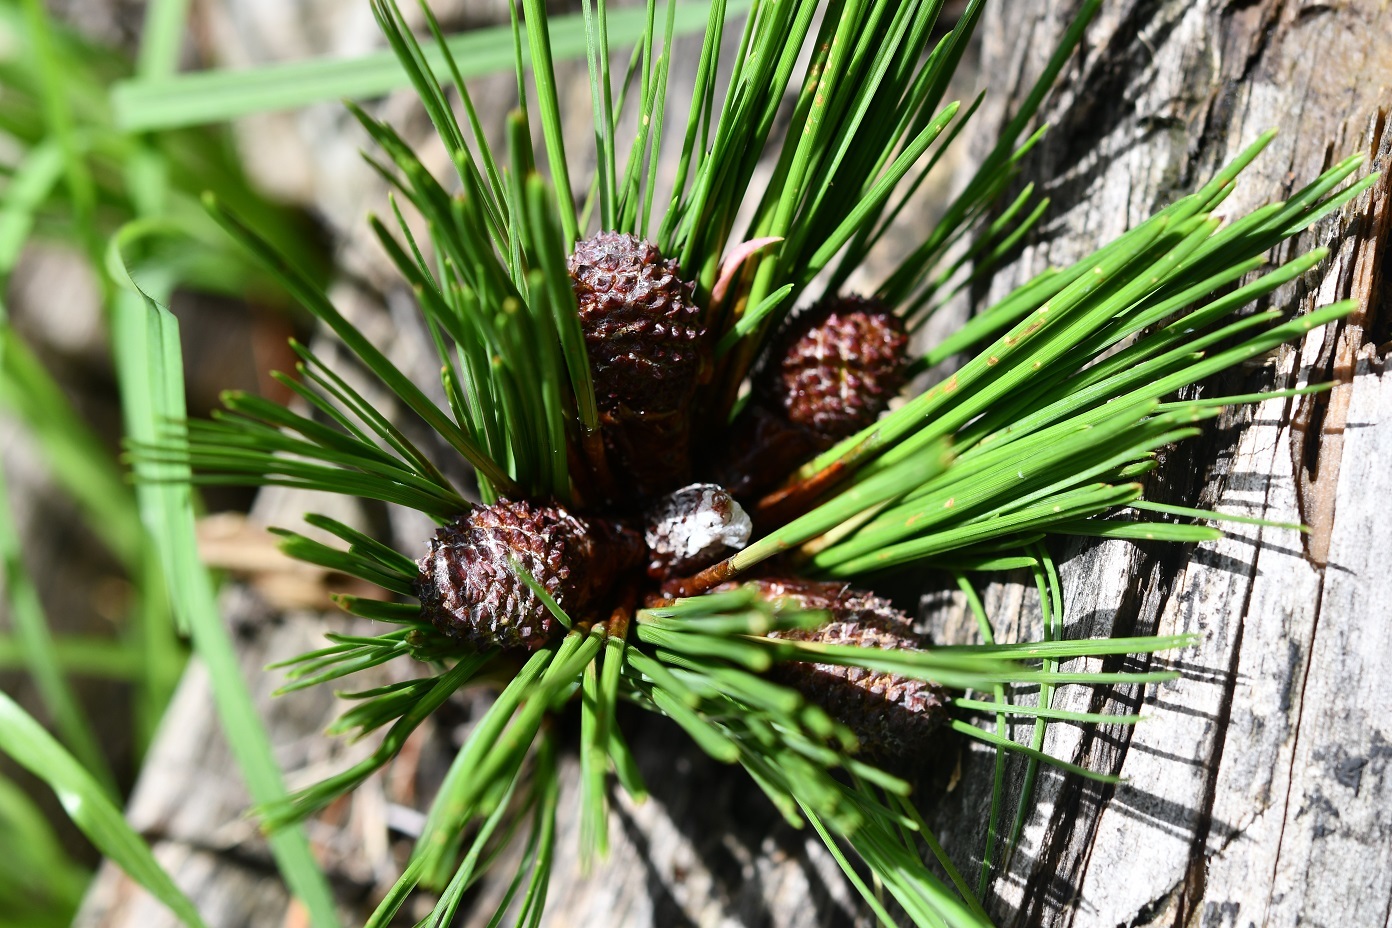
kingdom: Plantae
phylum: Tracheophyta
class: Pinopsida
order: Pinales
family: Pinaceae
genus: Pinus
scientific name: Pinus pseudostrobus
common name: False weymouth pine
